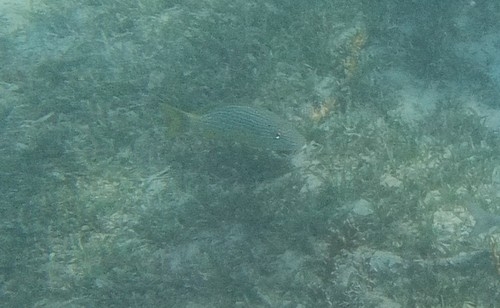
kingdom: Animalia
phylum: Chordata
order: Perciformes
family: Haemulidae
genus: Haemulon
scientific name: Haemulon sciurus
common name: Bluestriped grunt
